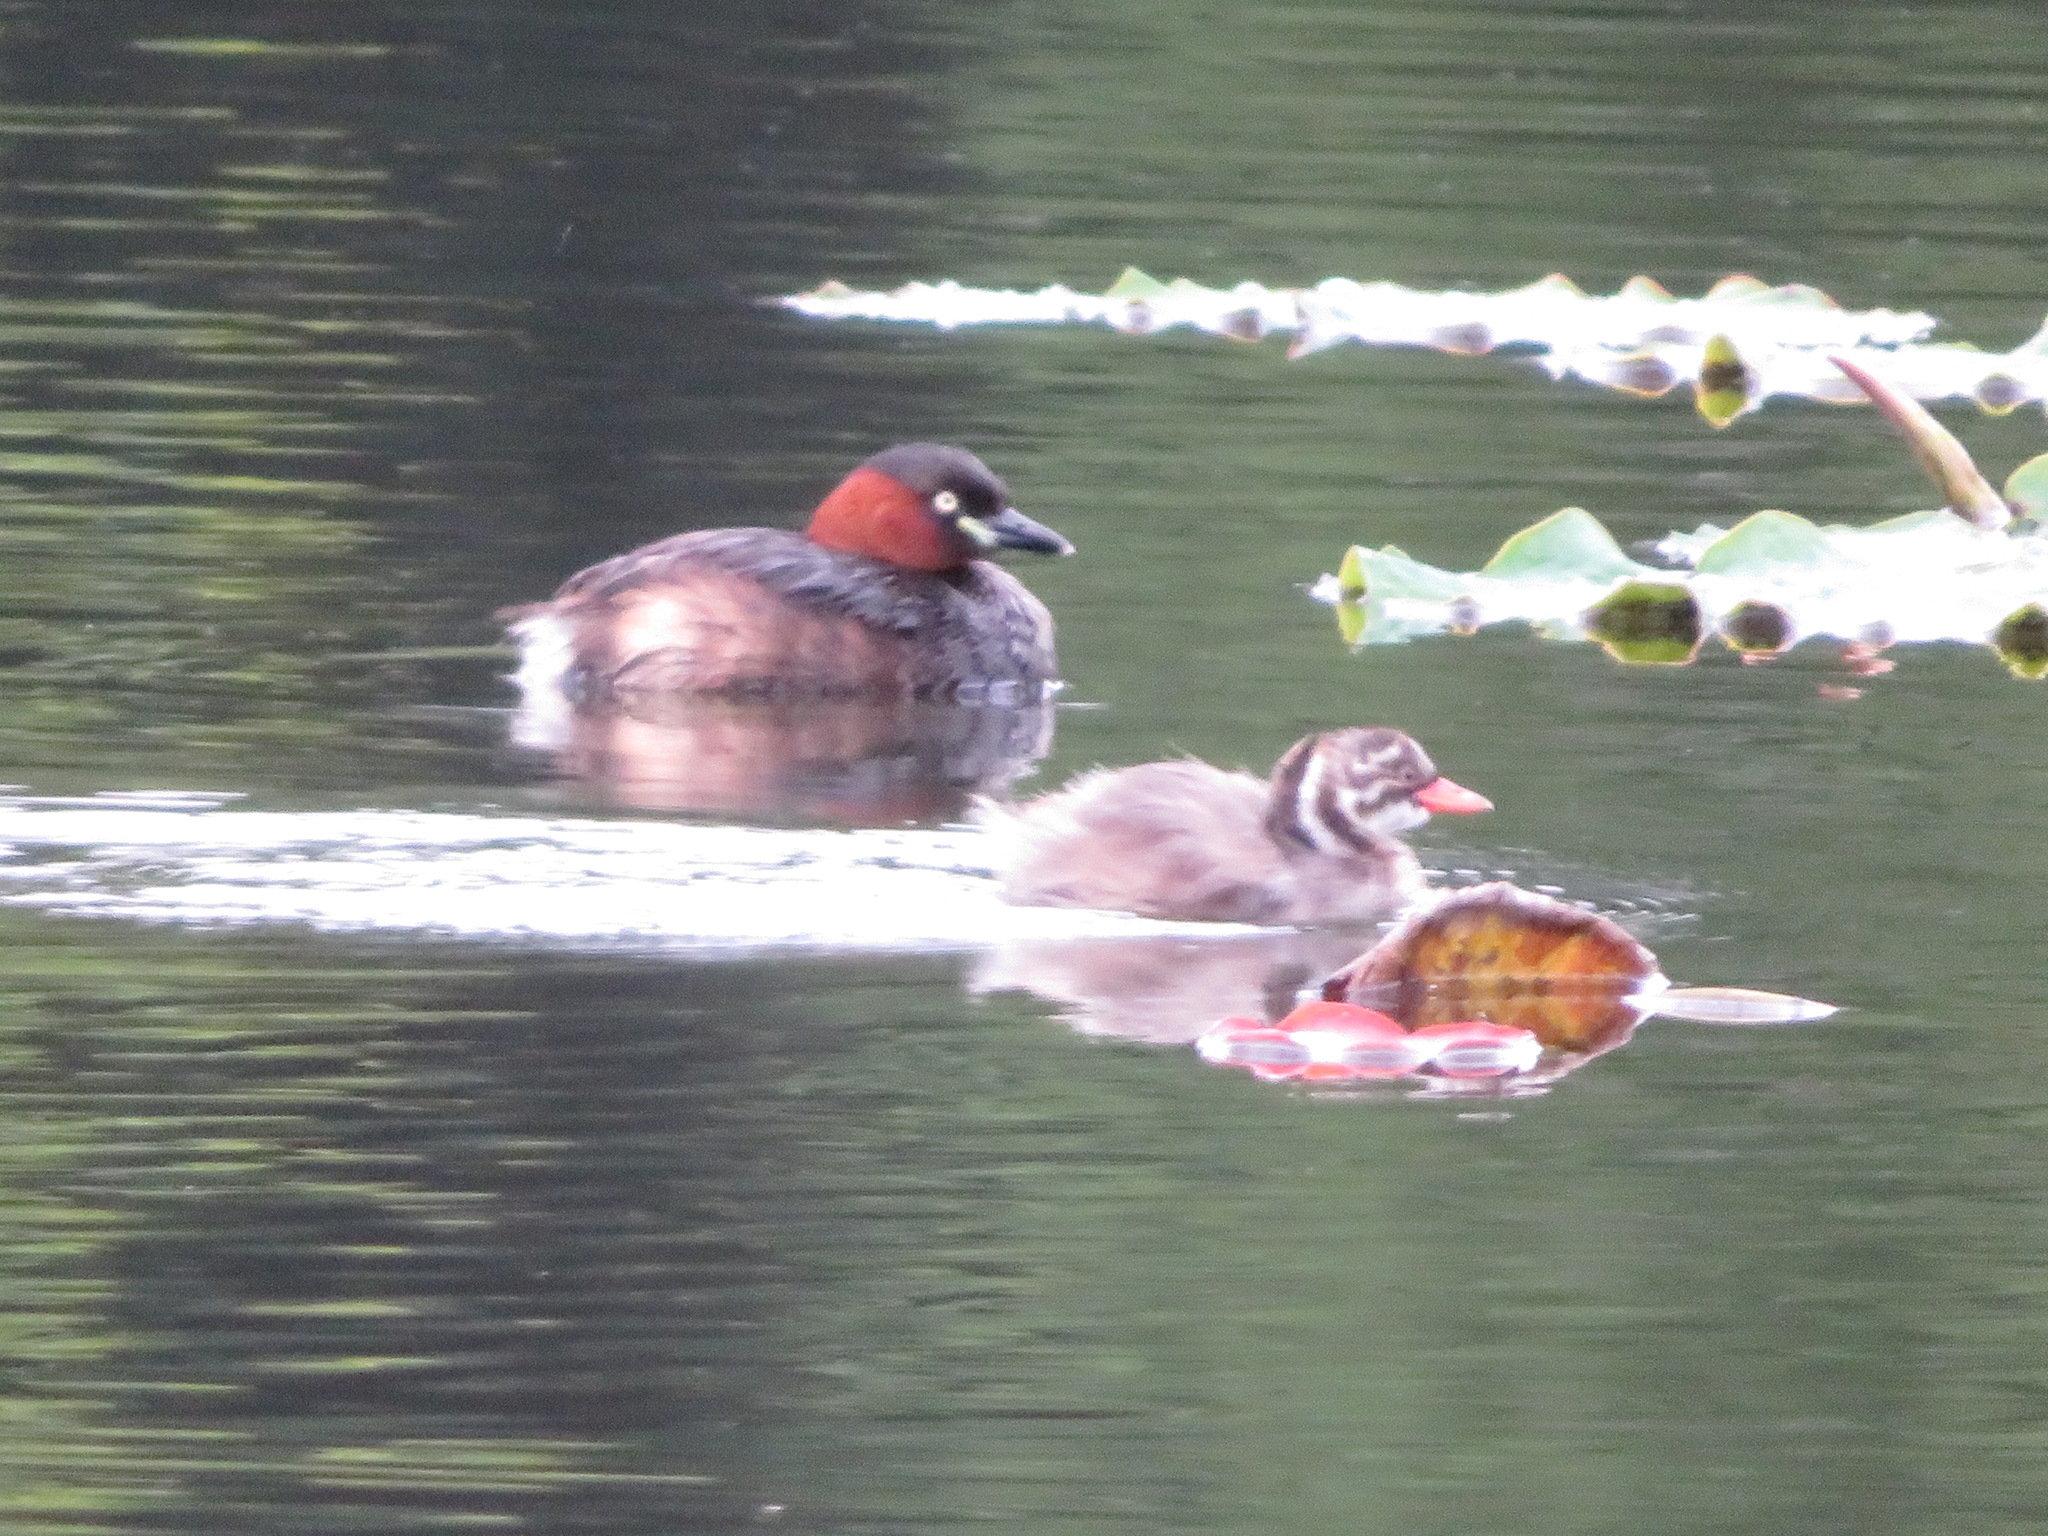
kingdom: Animalia
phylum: Chordata
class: Aves
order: Podicipediformes
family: Podicipedidae
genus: Tachybaptus
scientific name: Tachybaptus ruficollis
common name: Little grebe
